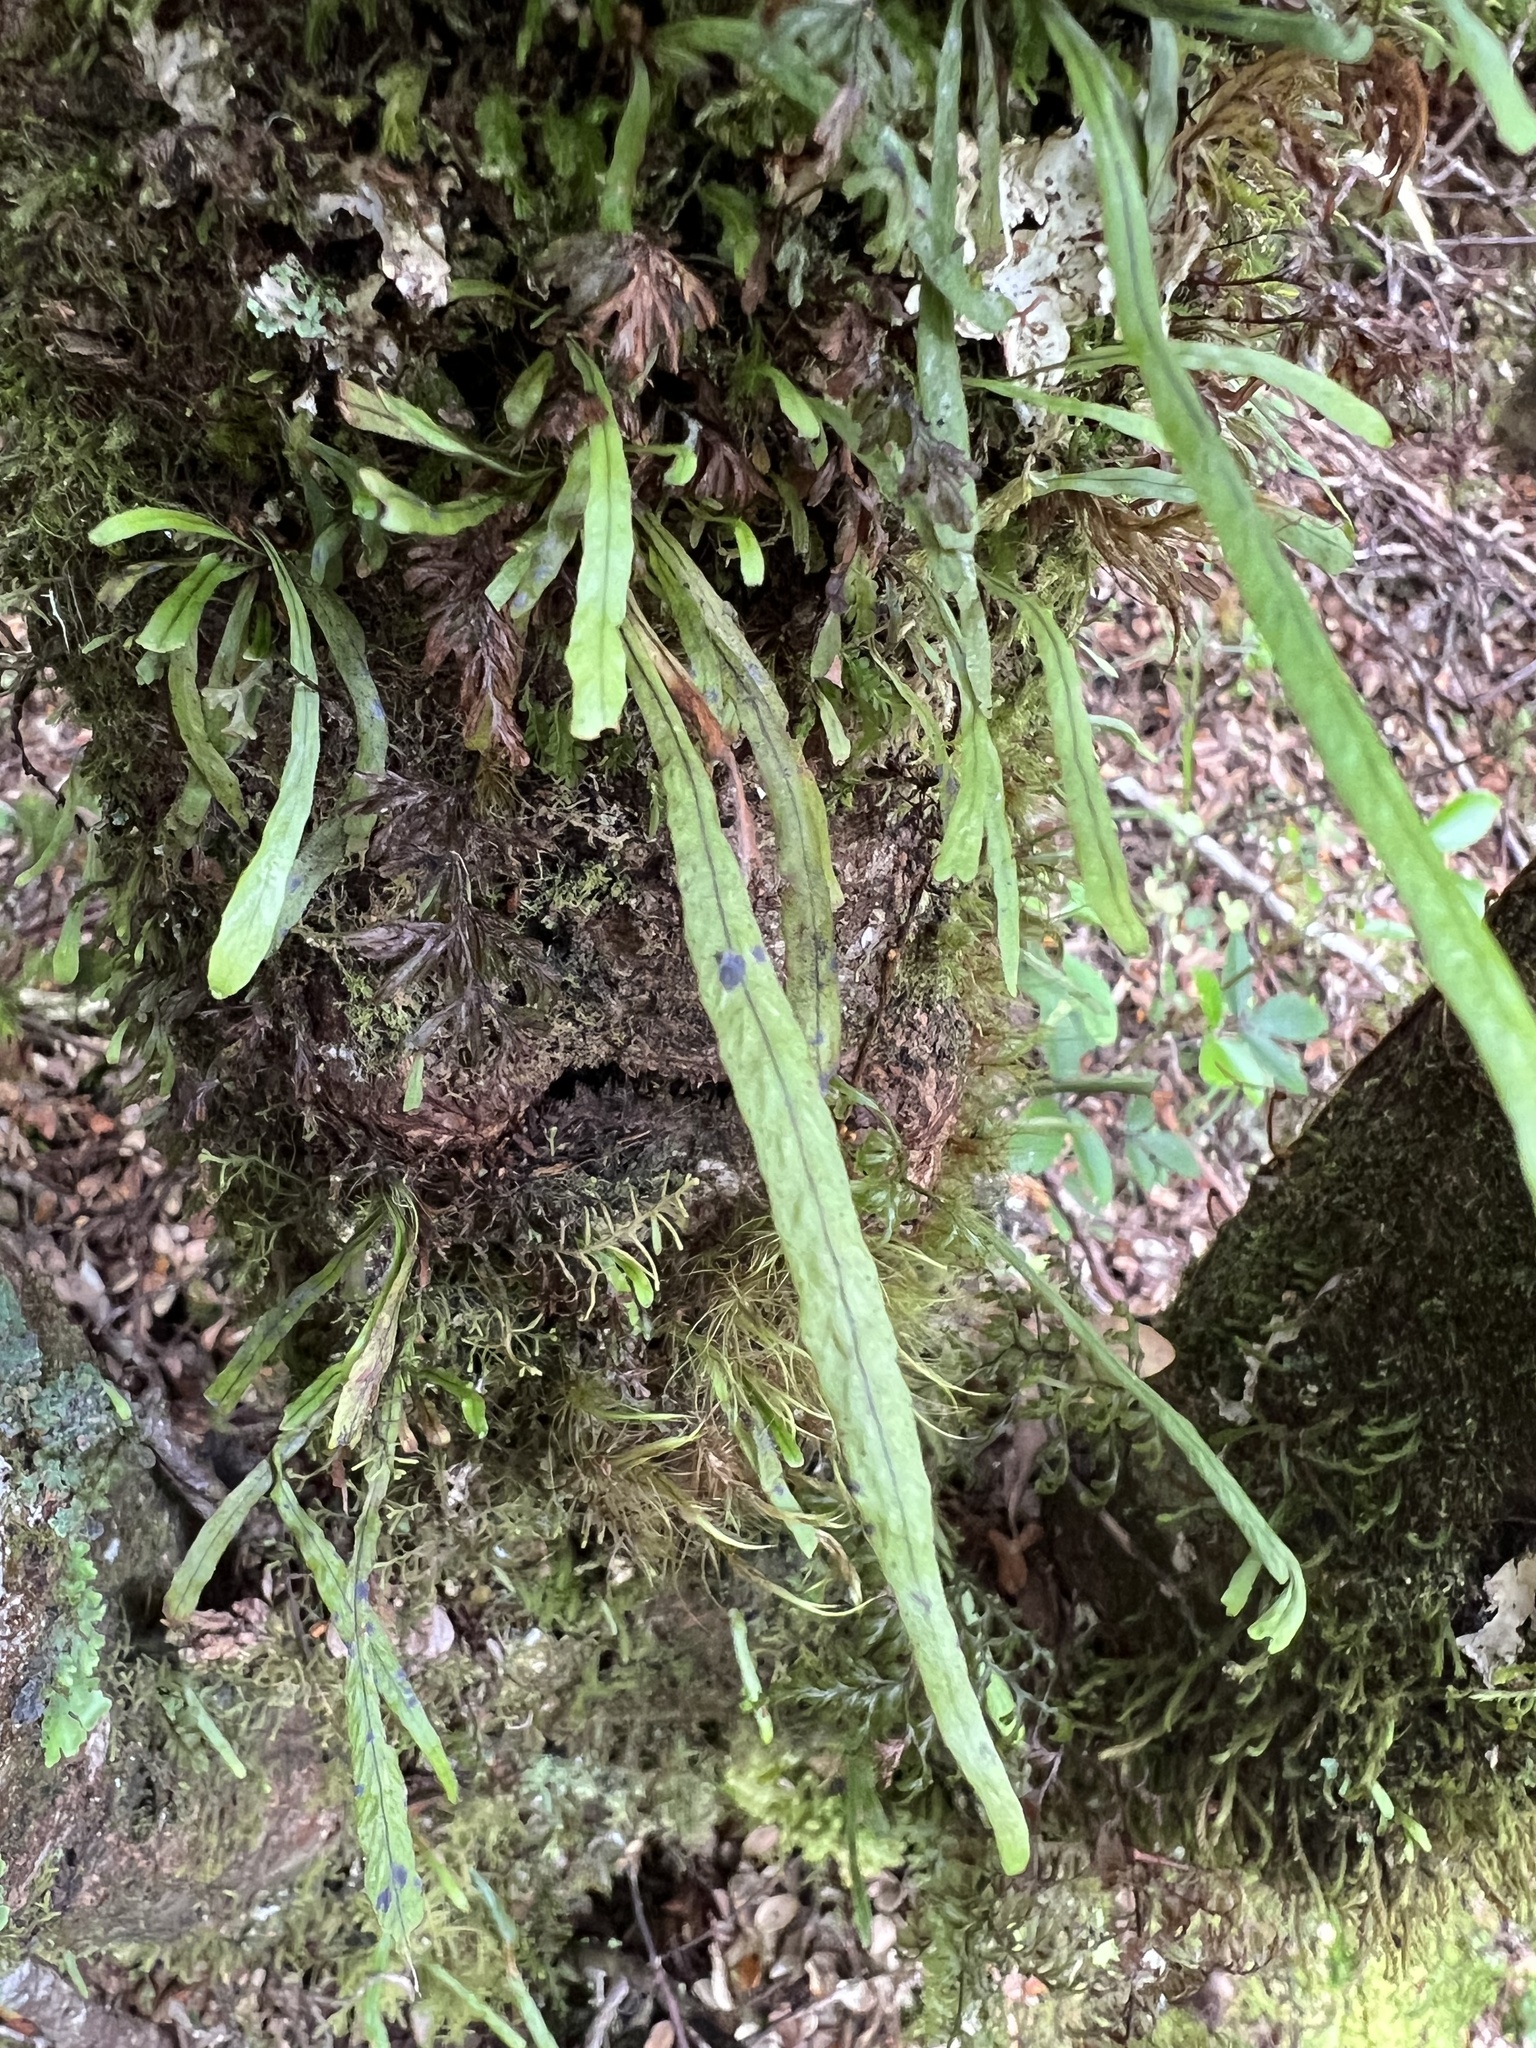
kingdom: Plantae
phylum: Tracheophyta
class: Polypodiopsida
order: Polypodiales
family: Polypodiaceae
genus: Notogrammitis
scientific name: Notogrammitis angustifolia
